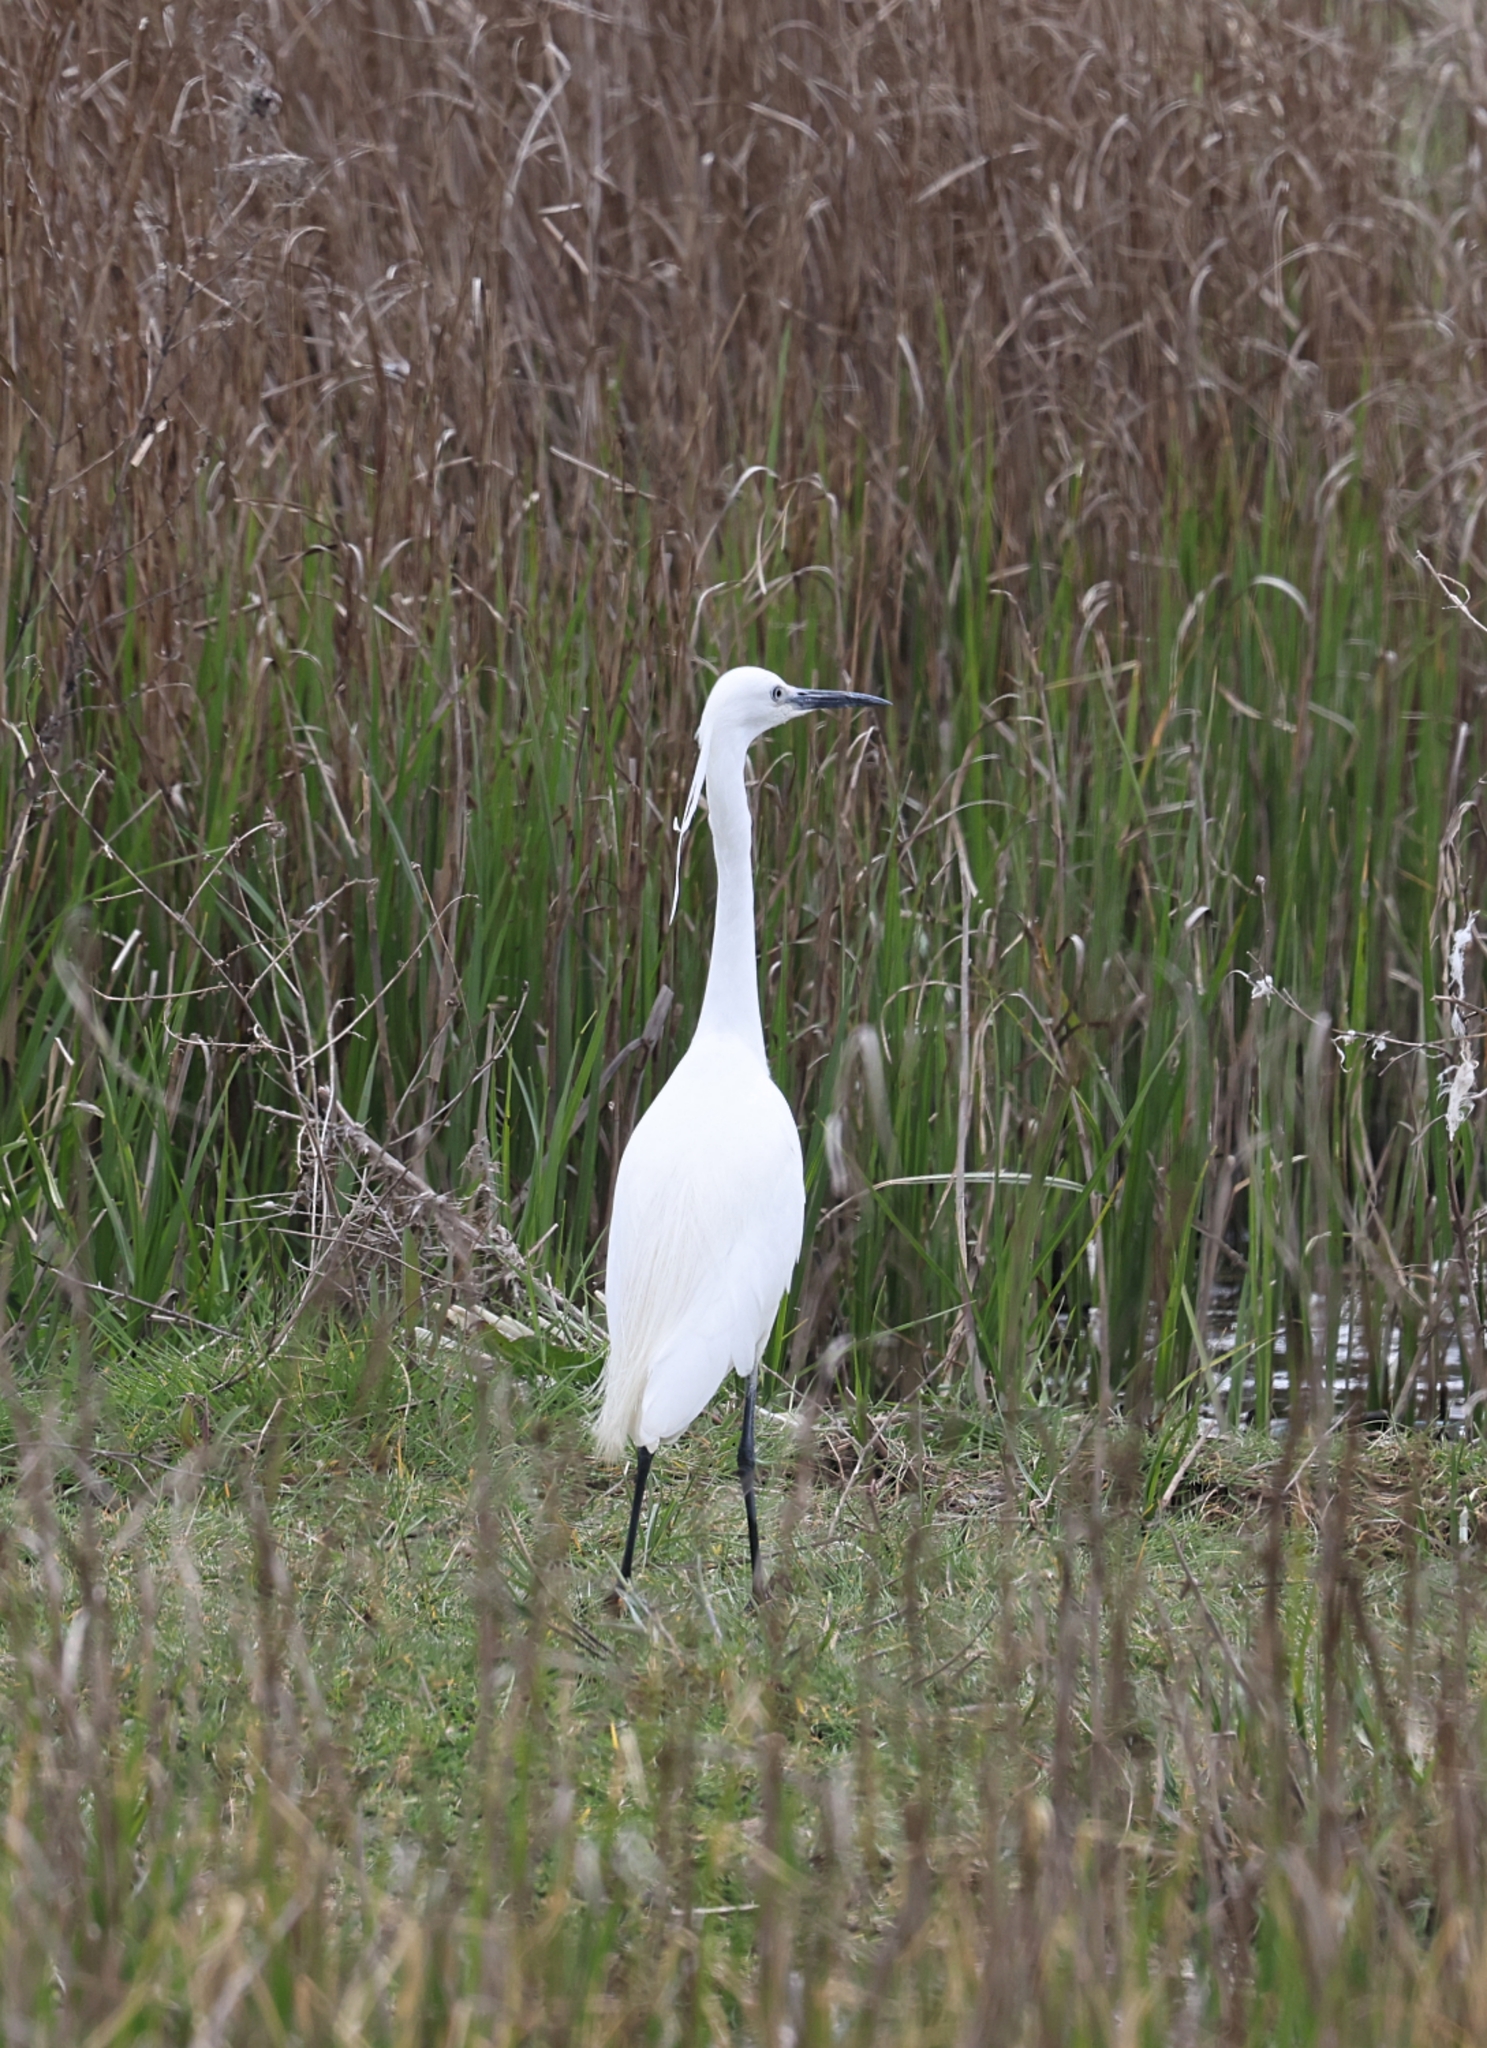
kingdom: Animalia
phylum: Chordata
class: Aves
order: Pelecaniformes
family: Ardeidae
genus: Egretta
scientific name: Egretta garzetta
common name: Little egret
